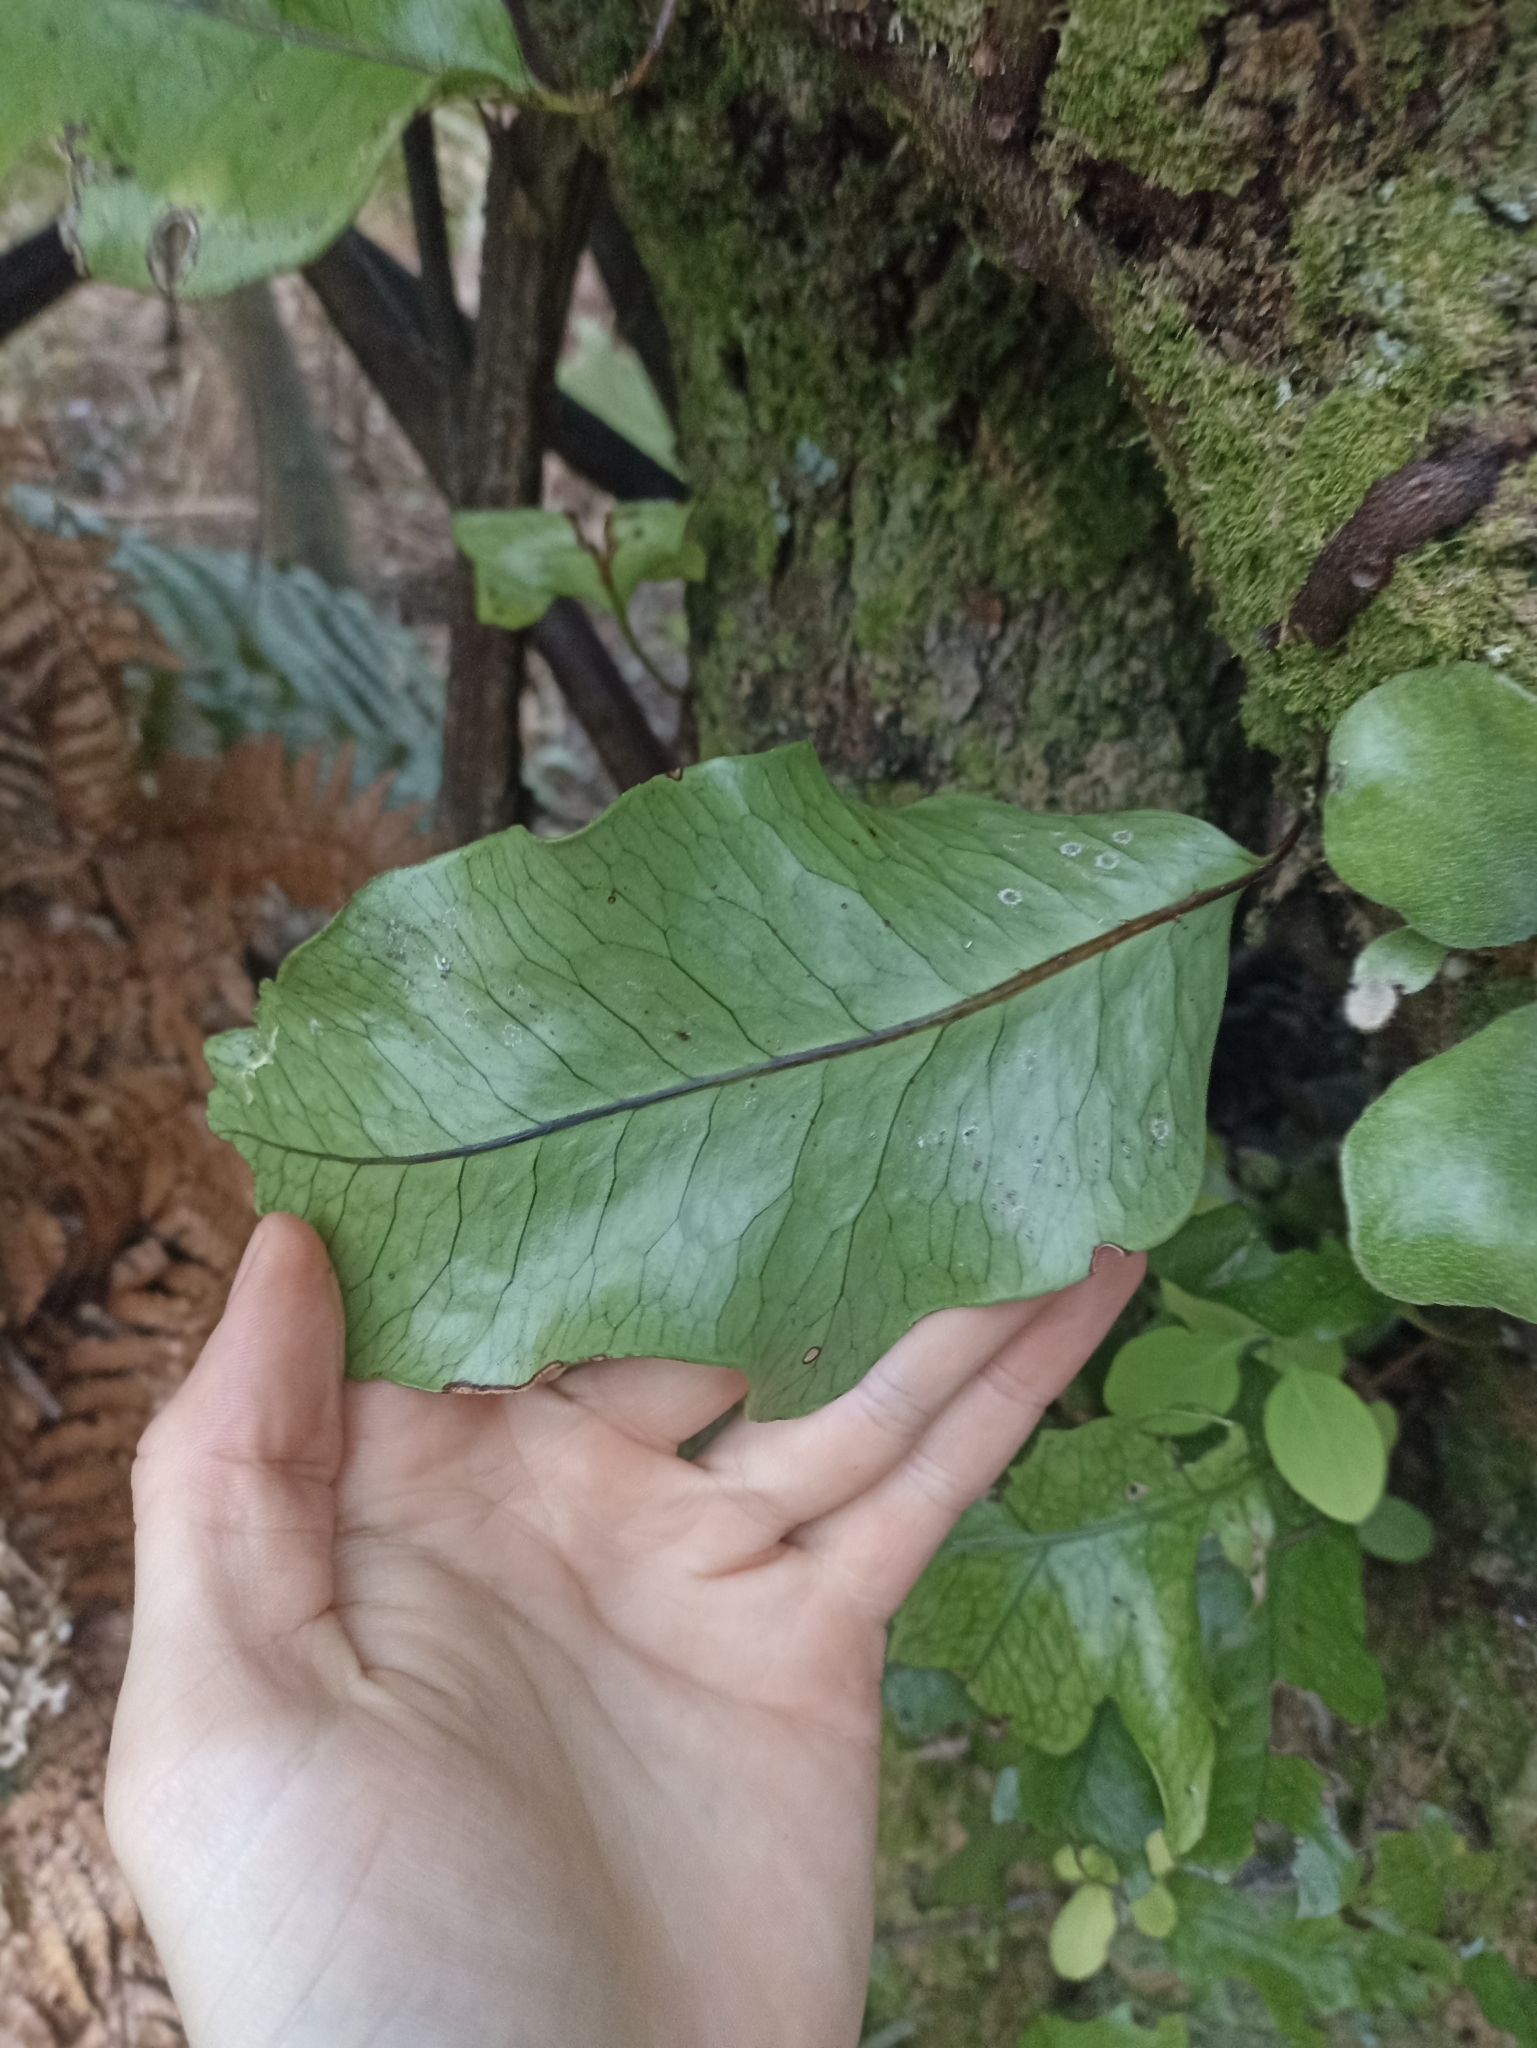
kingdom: Plantae
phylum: Tracheophyta
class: Polypodiopsida
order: Polypodiales
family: Polypodiaceae
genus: Lecanopteris
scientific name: Lecanopteris pustulata
